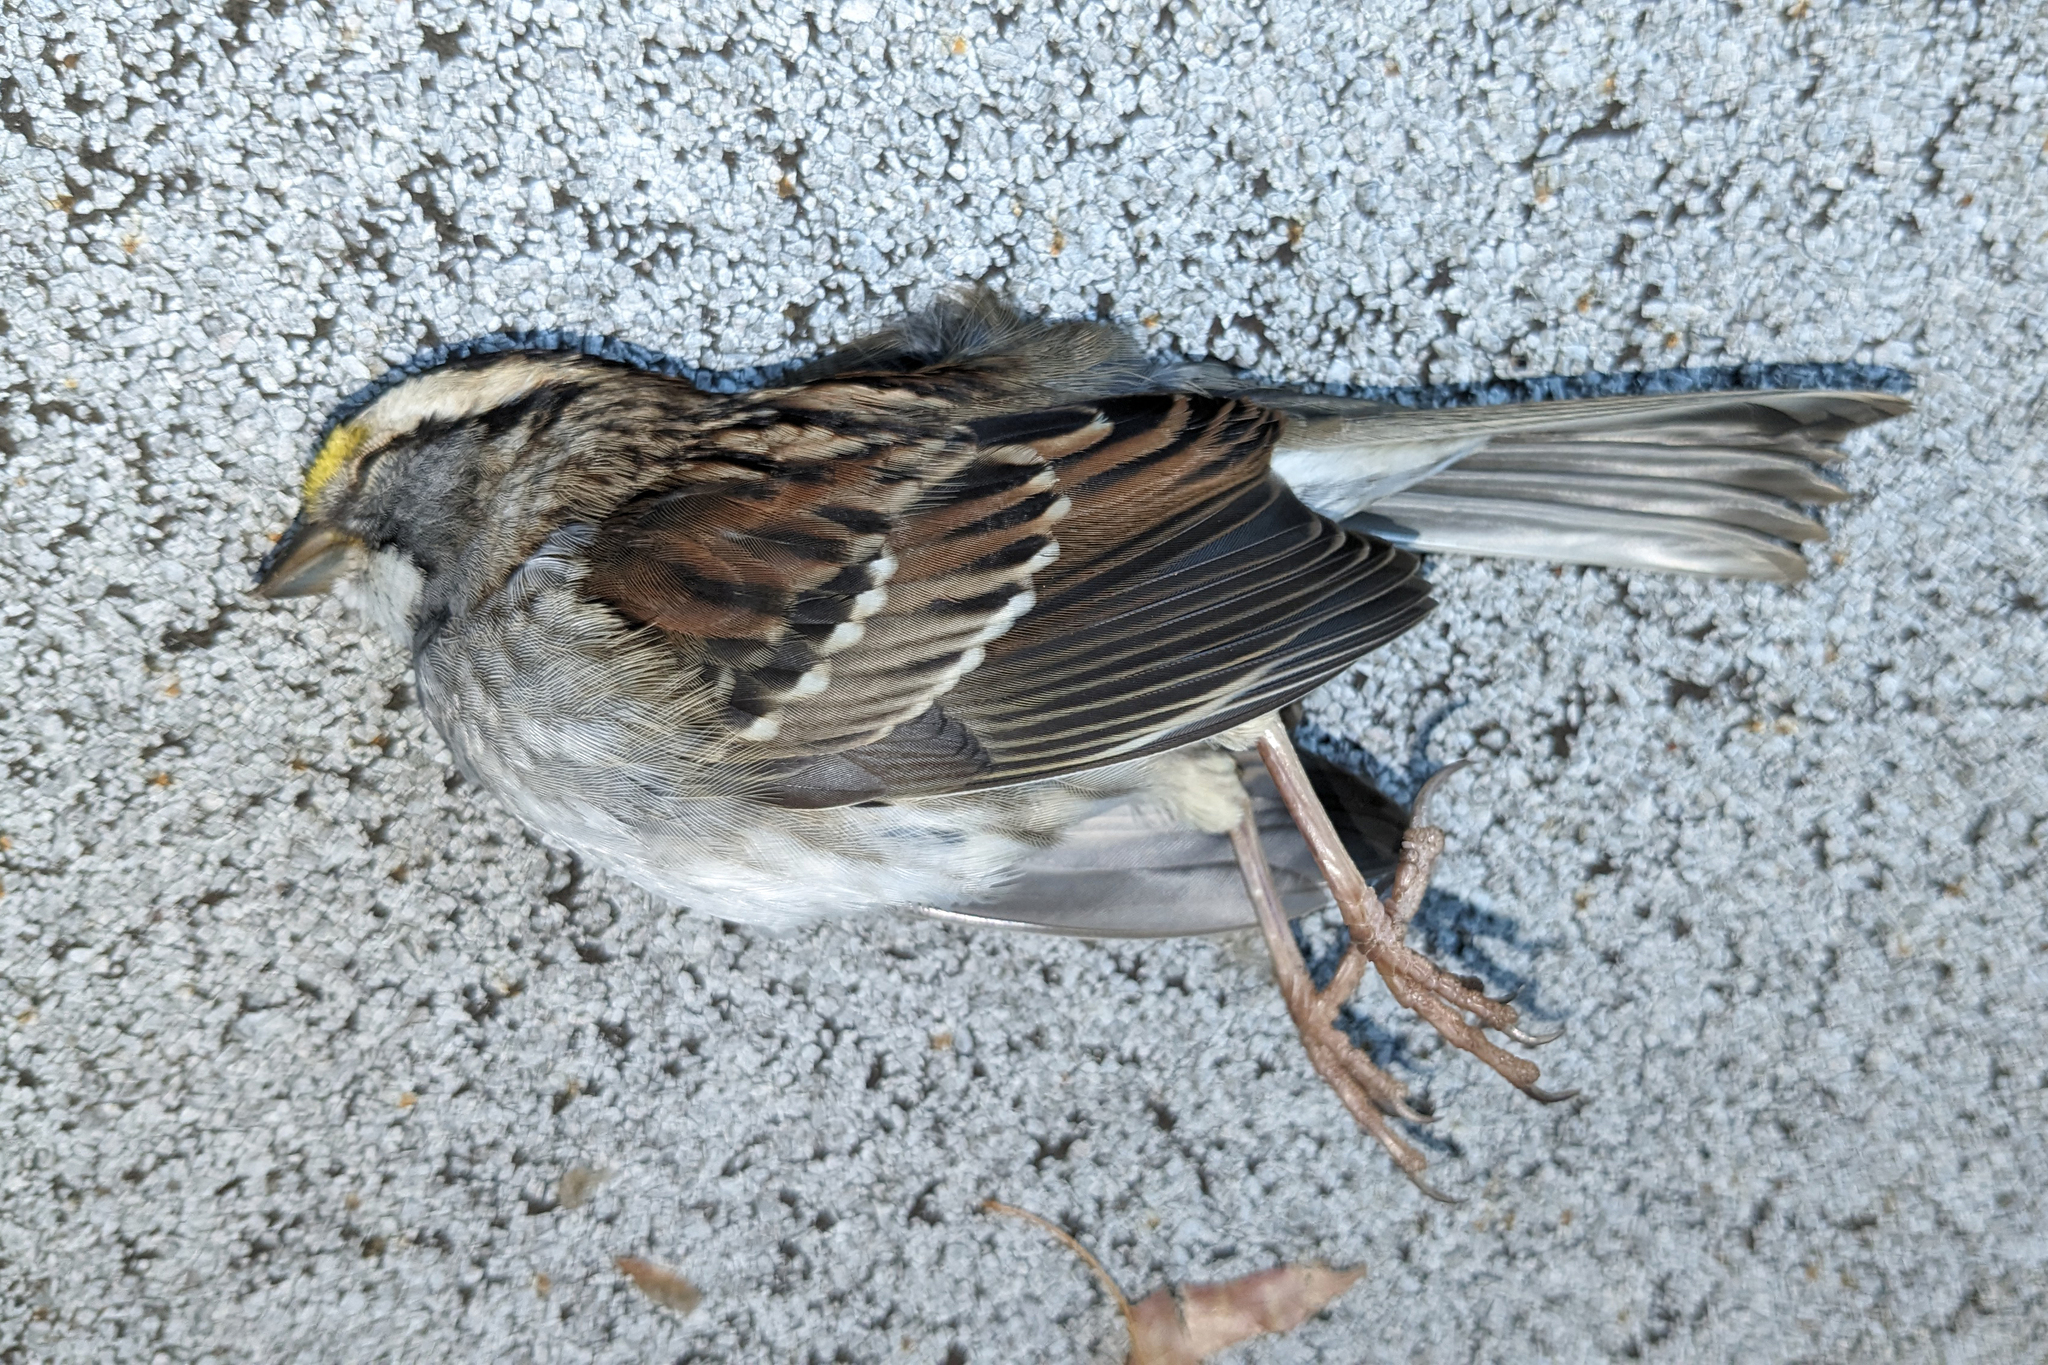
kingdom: Animalia
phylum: Chordata
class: Aves
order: Passeriformes
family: Passerellidae
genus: Zonotrichia
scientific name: Zonotrichia albicollis
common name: White-throated sparrow
